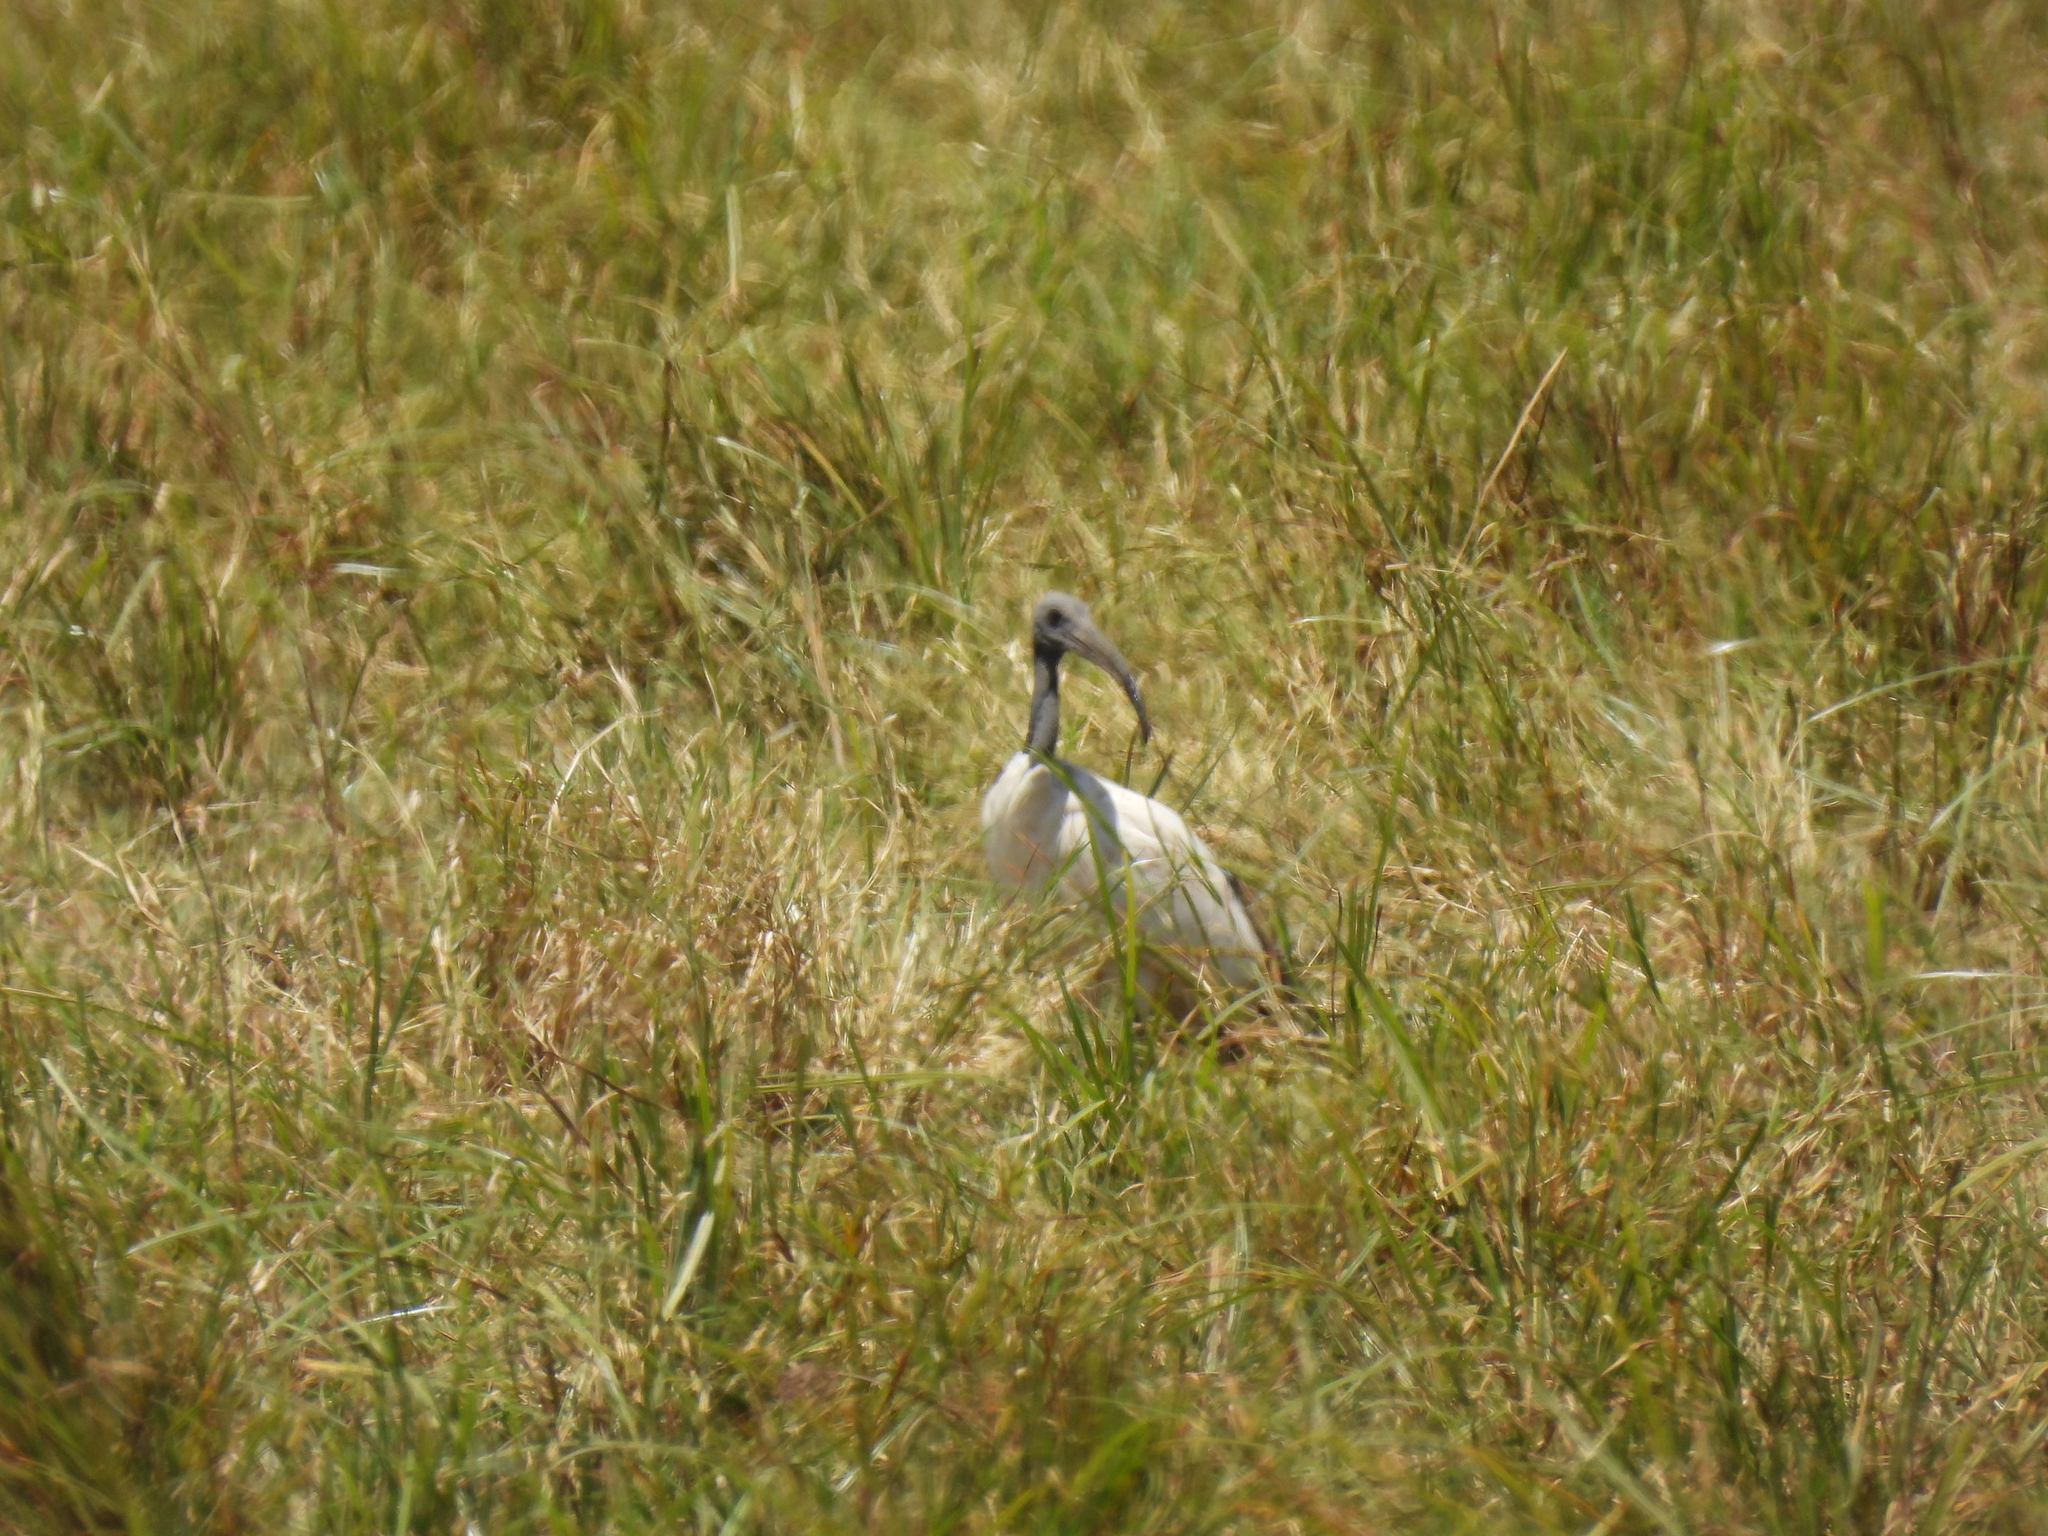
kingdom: Animalia
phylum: Chordata
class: Aves
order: Pelecaniformes
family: Threskiornithidae
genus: Threskiornis
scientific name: Threskiornis aethiopicus
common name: Sacred ibis
